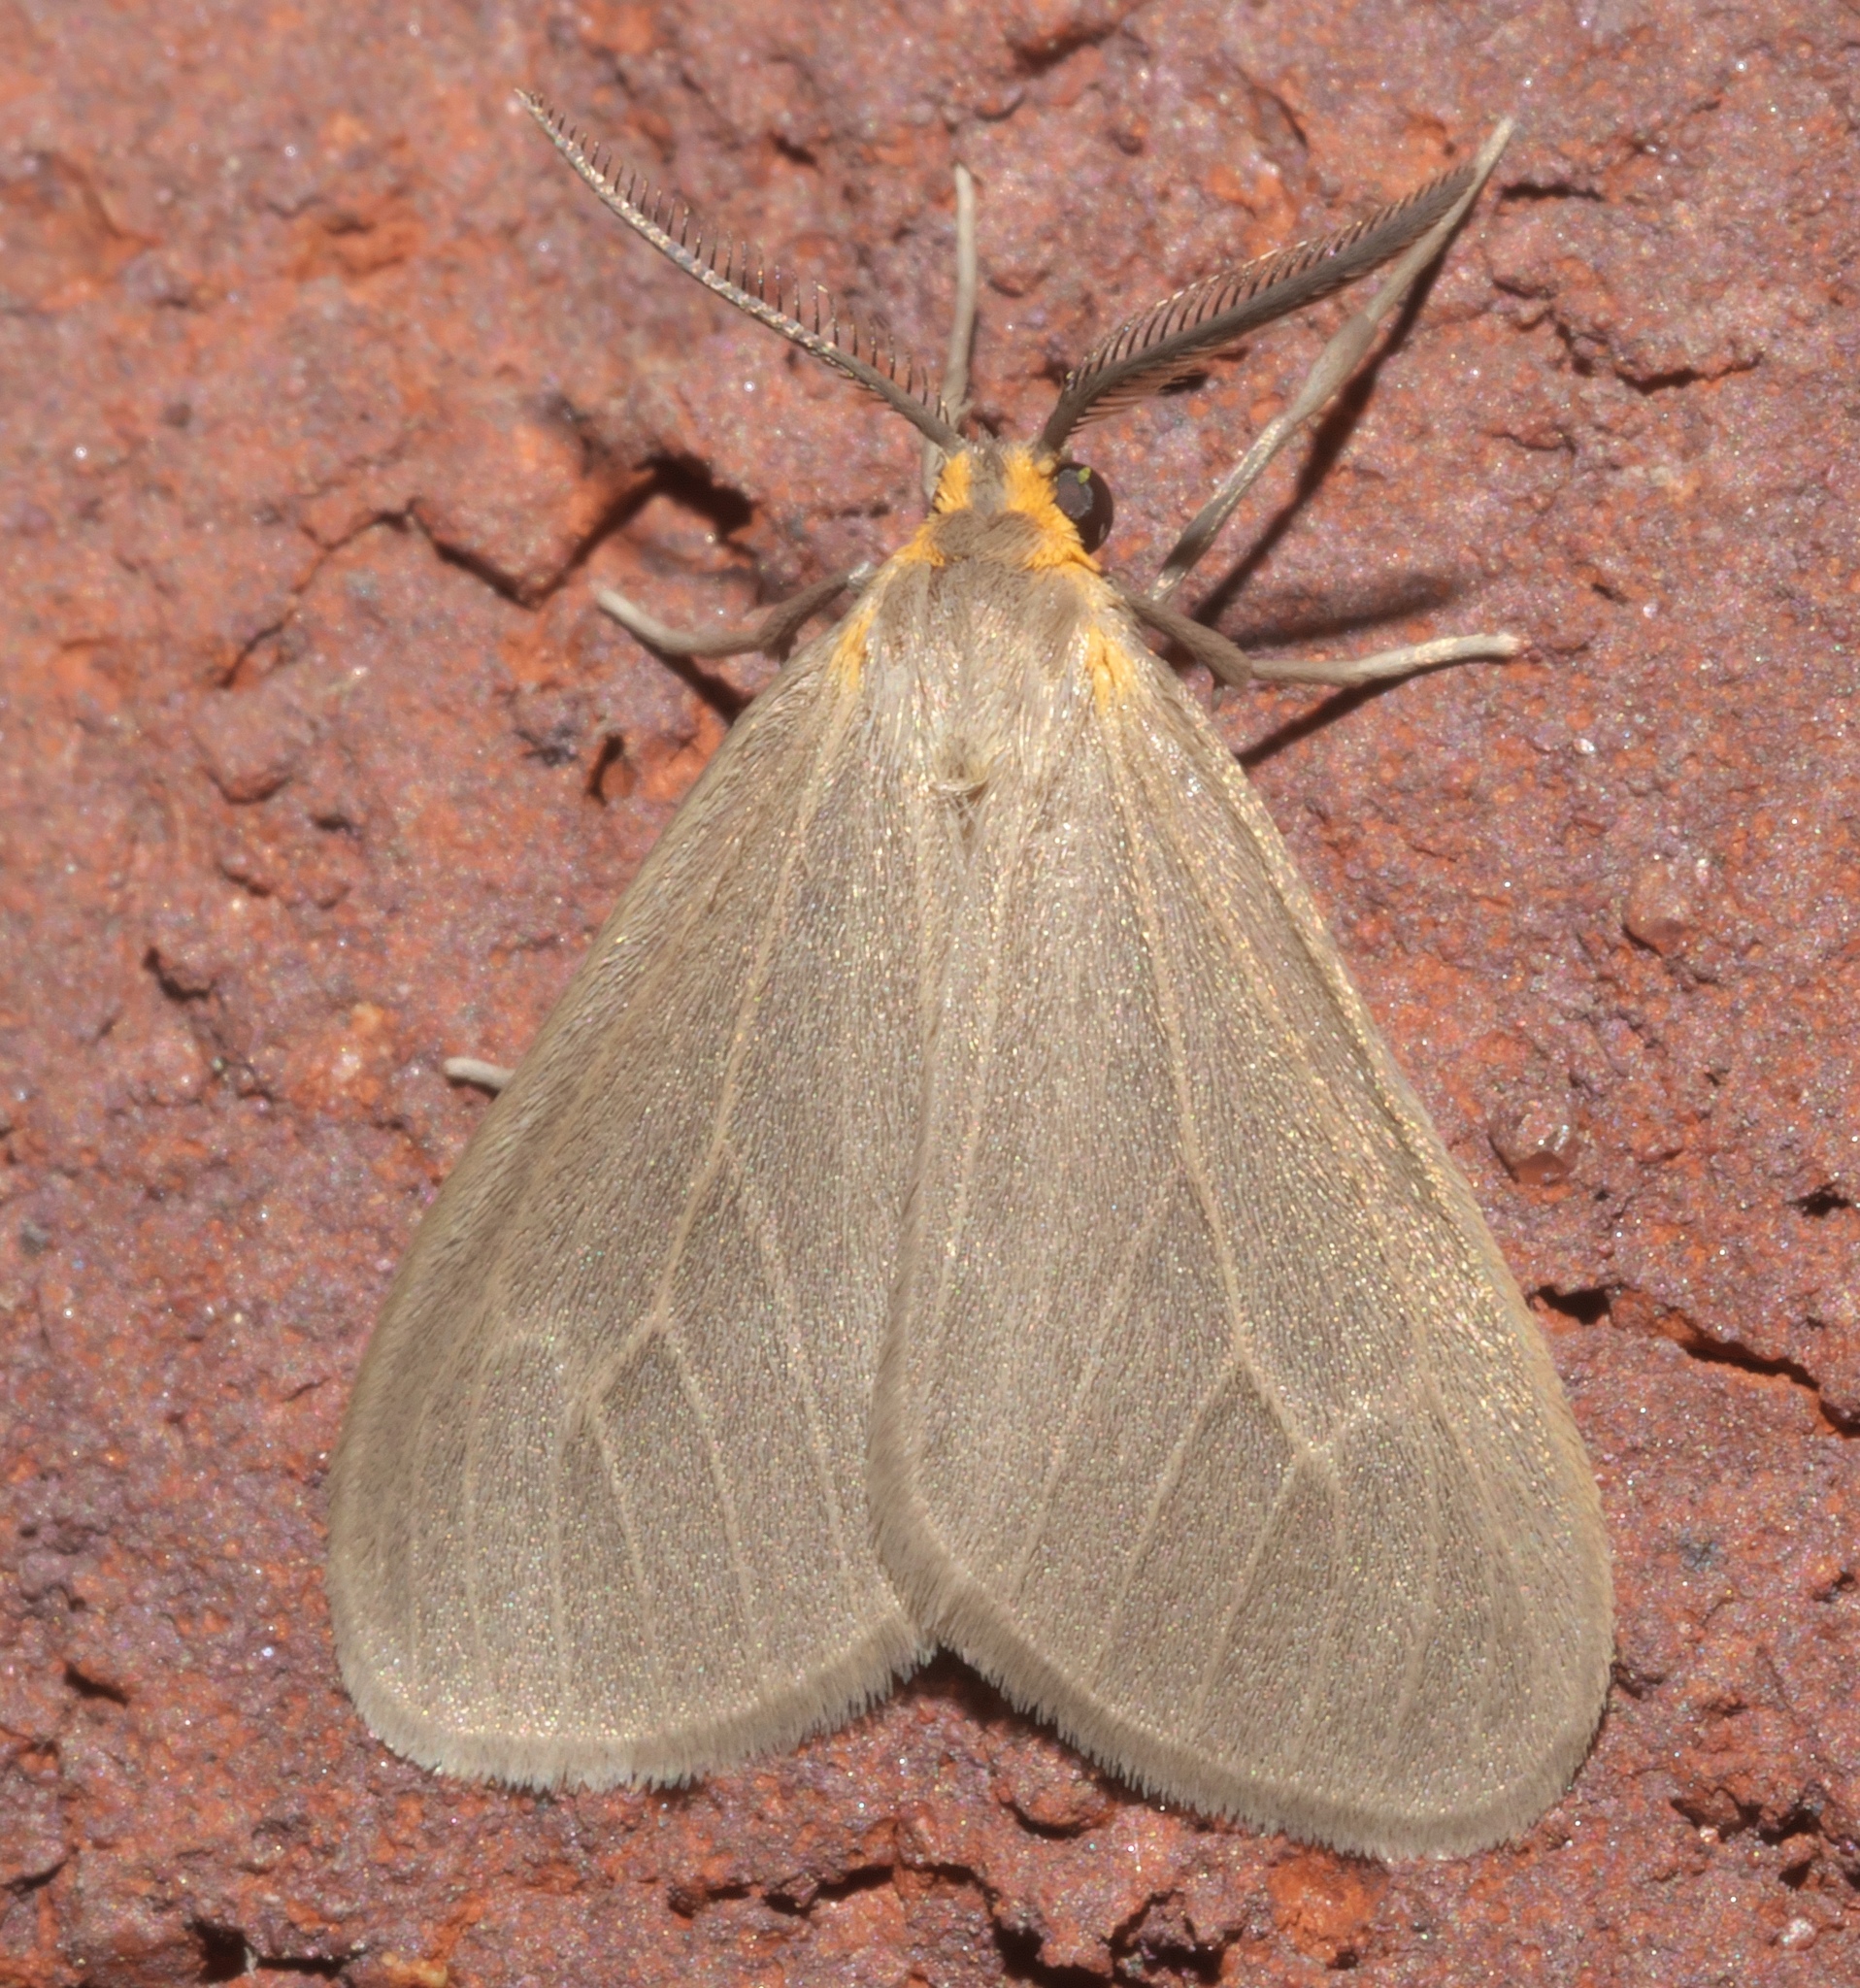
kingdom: Animalia
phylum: Arthropoda
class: Insecta
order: Lepidoptera
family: Erebidae
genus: Pagara
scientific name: Pagara simplex
